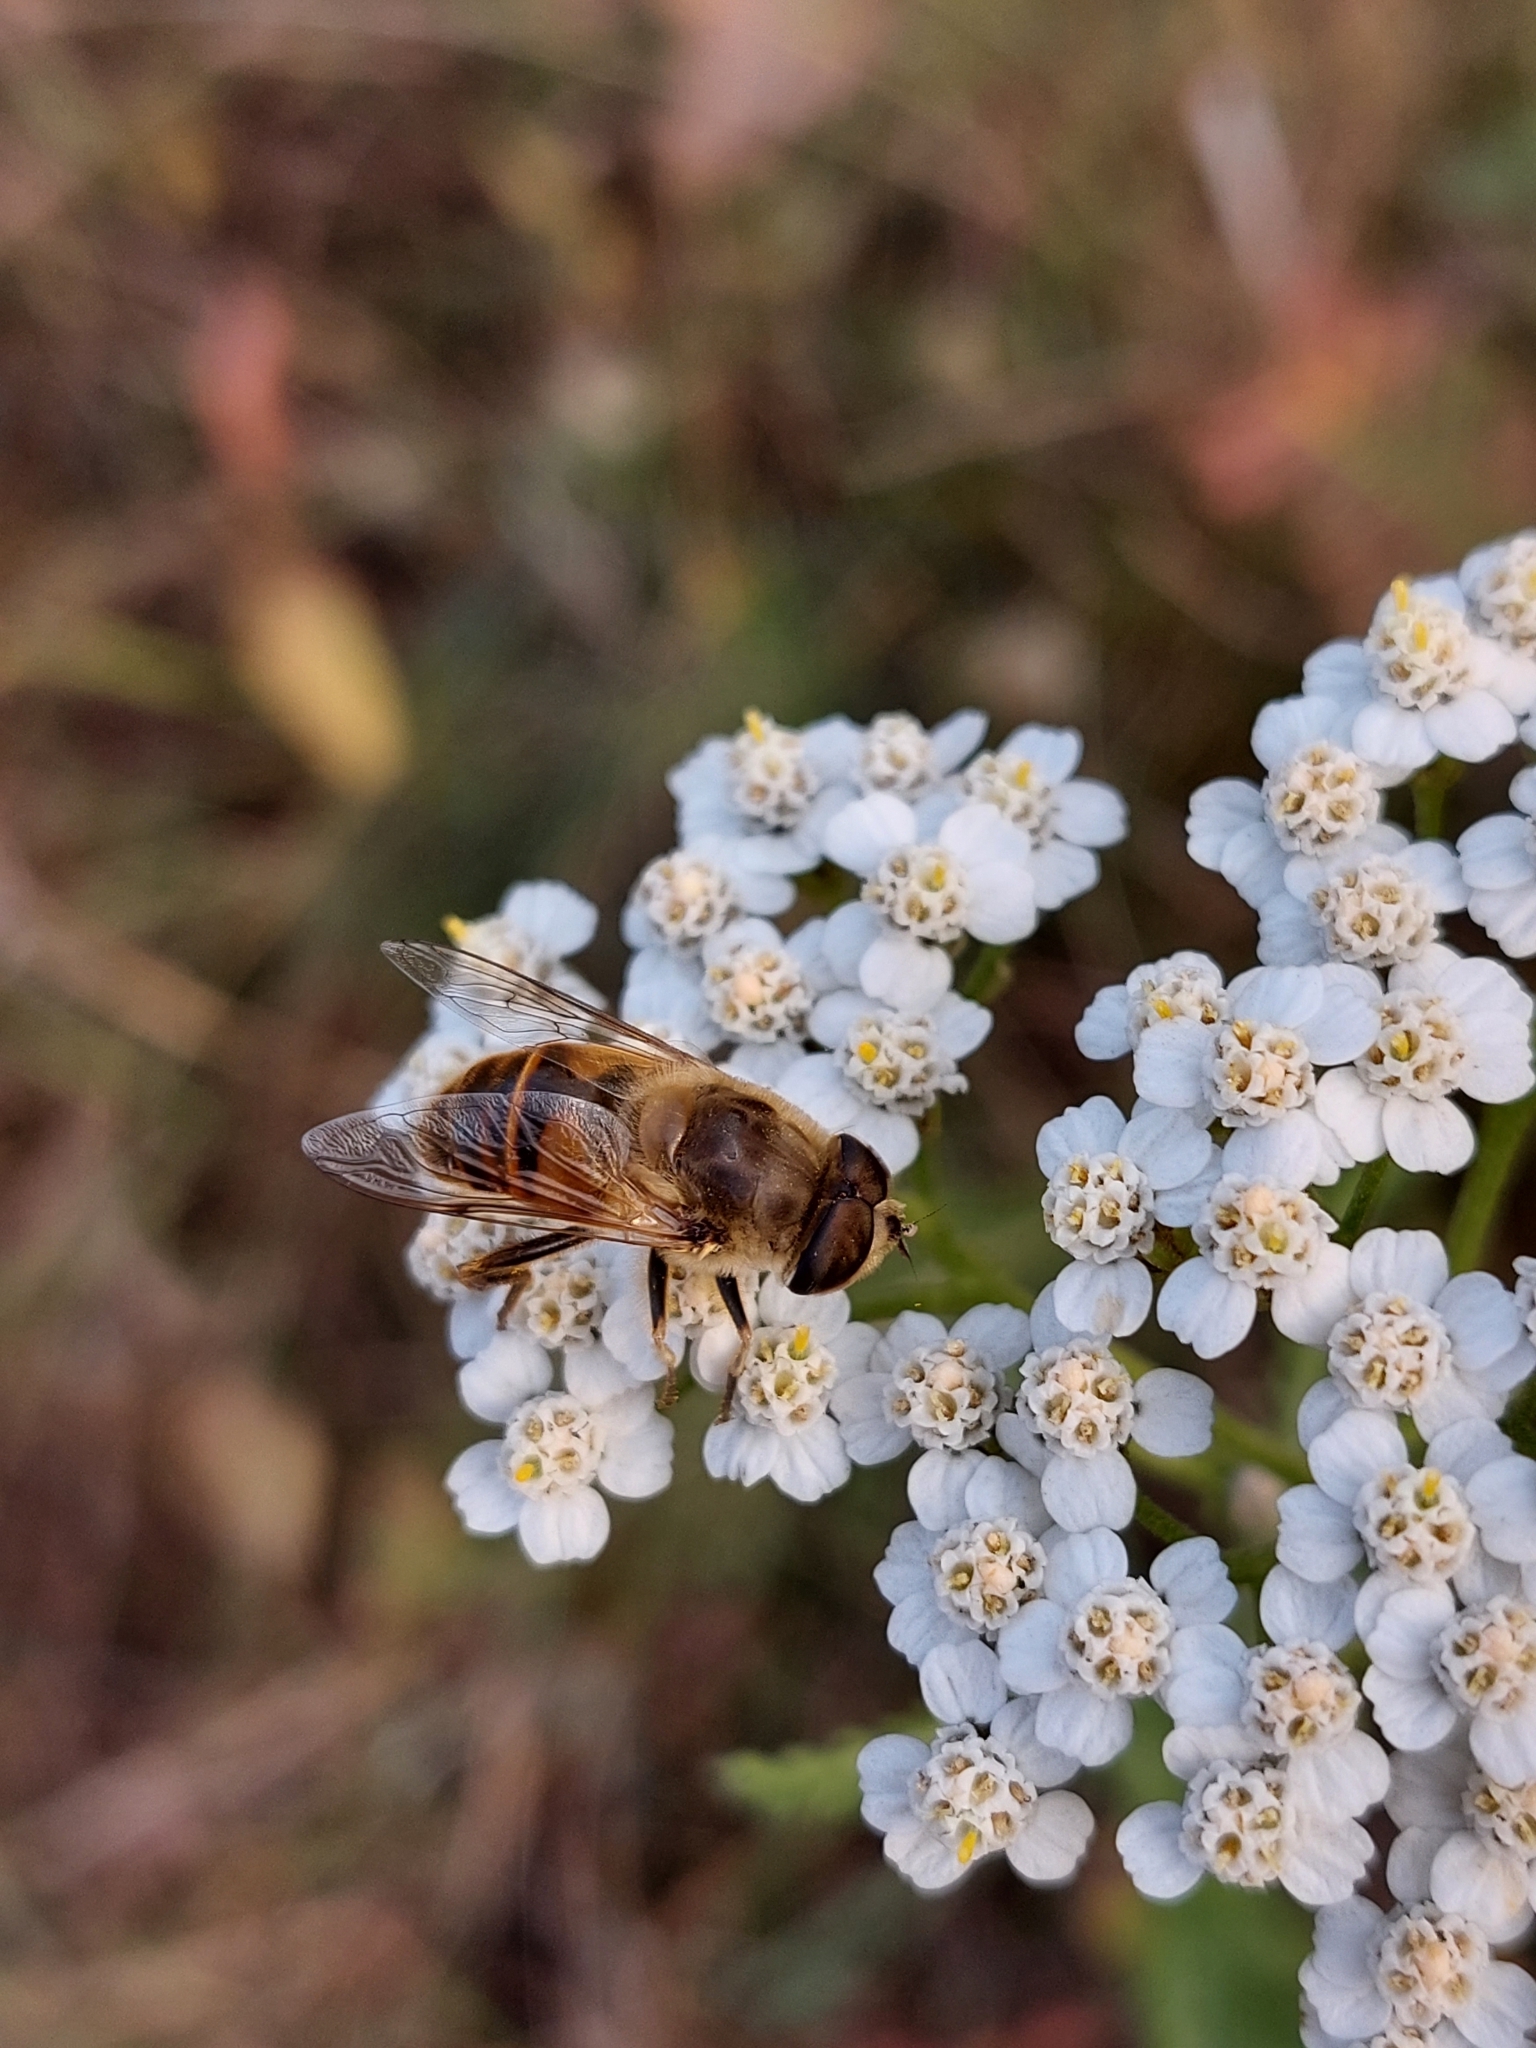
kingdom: Animalia
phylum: Arthropoda
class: Insecta
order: Diptera
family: Syrphidae
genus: Eristalis
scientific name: Eristalis tenax
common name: Drone fly
